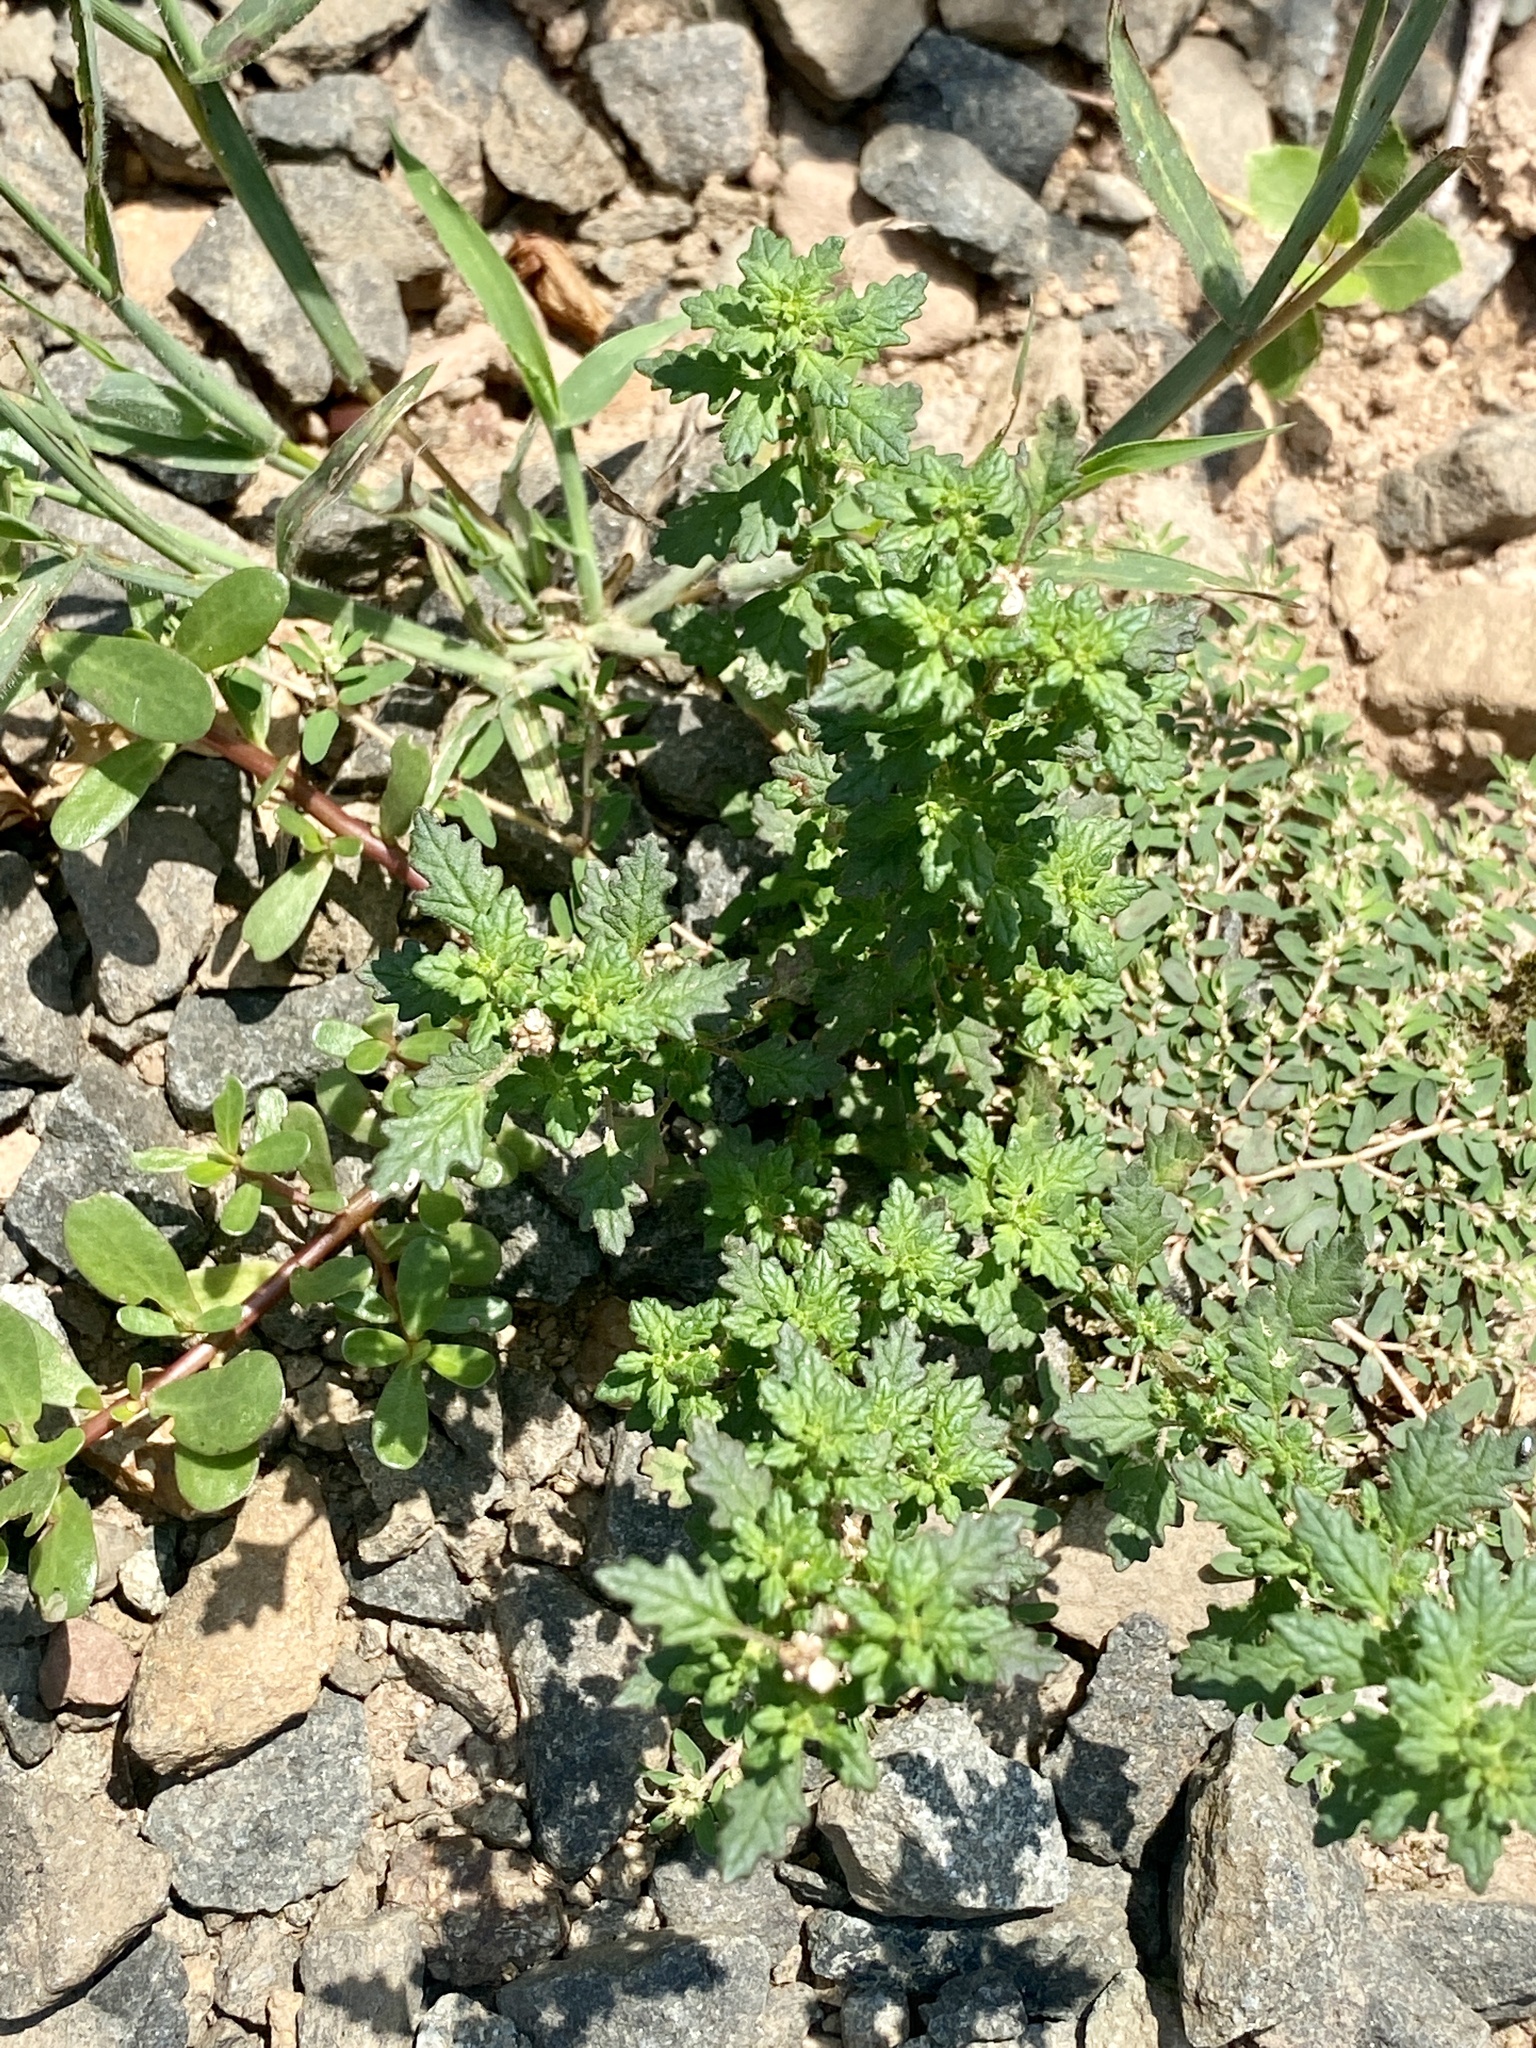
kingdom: Plantae
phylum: Tracheophyta
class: Magnoliopsida
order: Caryophyllales
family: Amaranthaceae
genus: Dysphania
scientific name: Dysphania pumilio
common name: Clammy goosefoot
